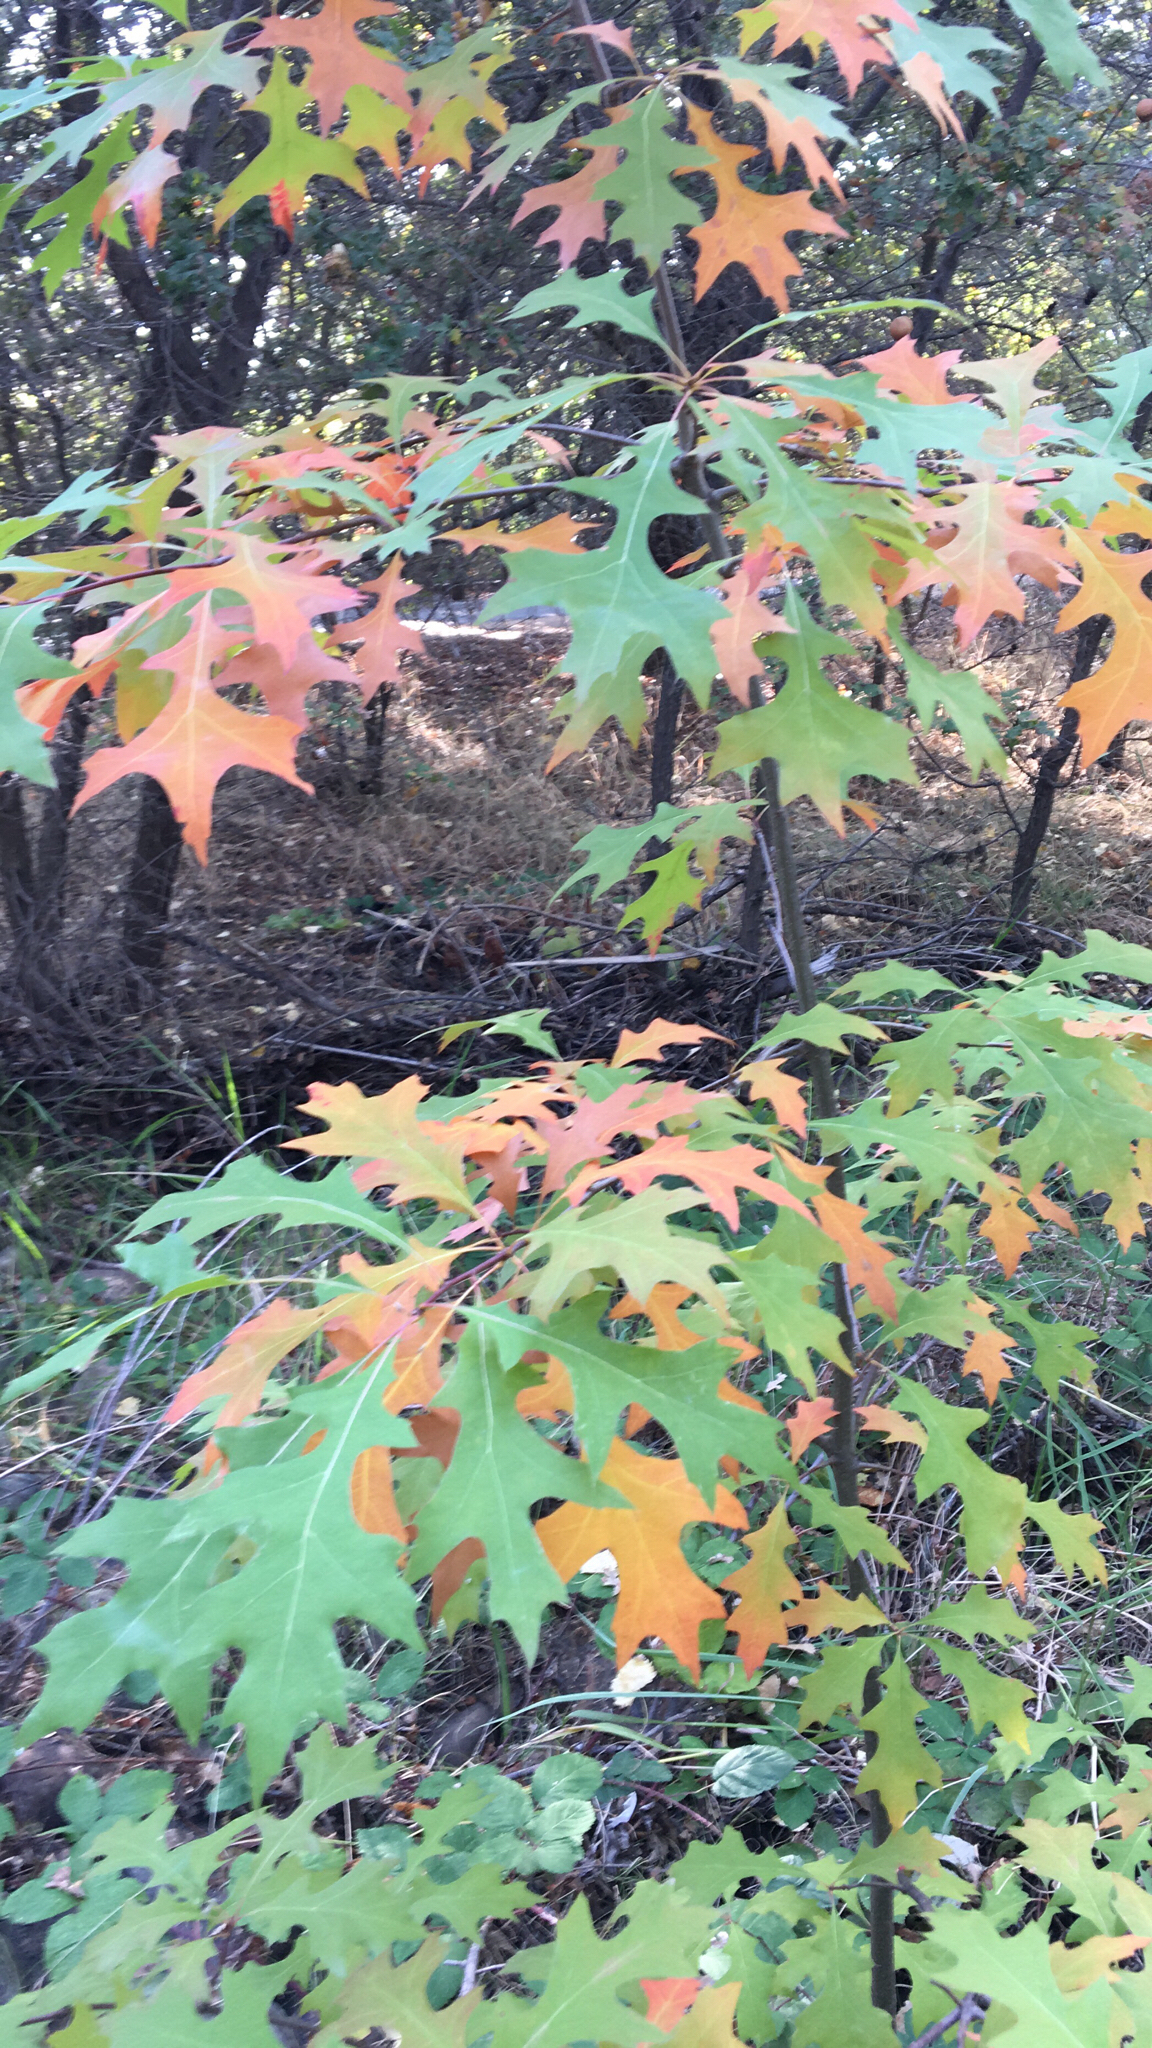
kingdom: Plantae
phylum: Tracheophyta
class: Magnoliopsida
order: Fagales
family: Fagaceae
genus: Quercus
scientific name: Quercus palustris
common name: Pin oak
